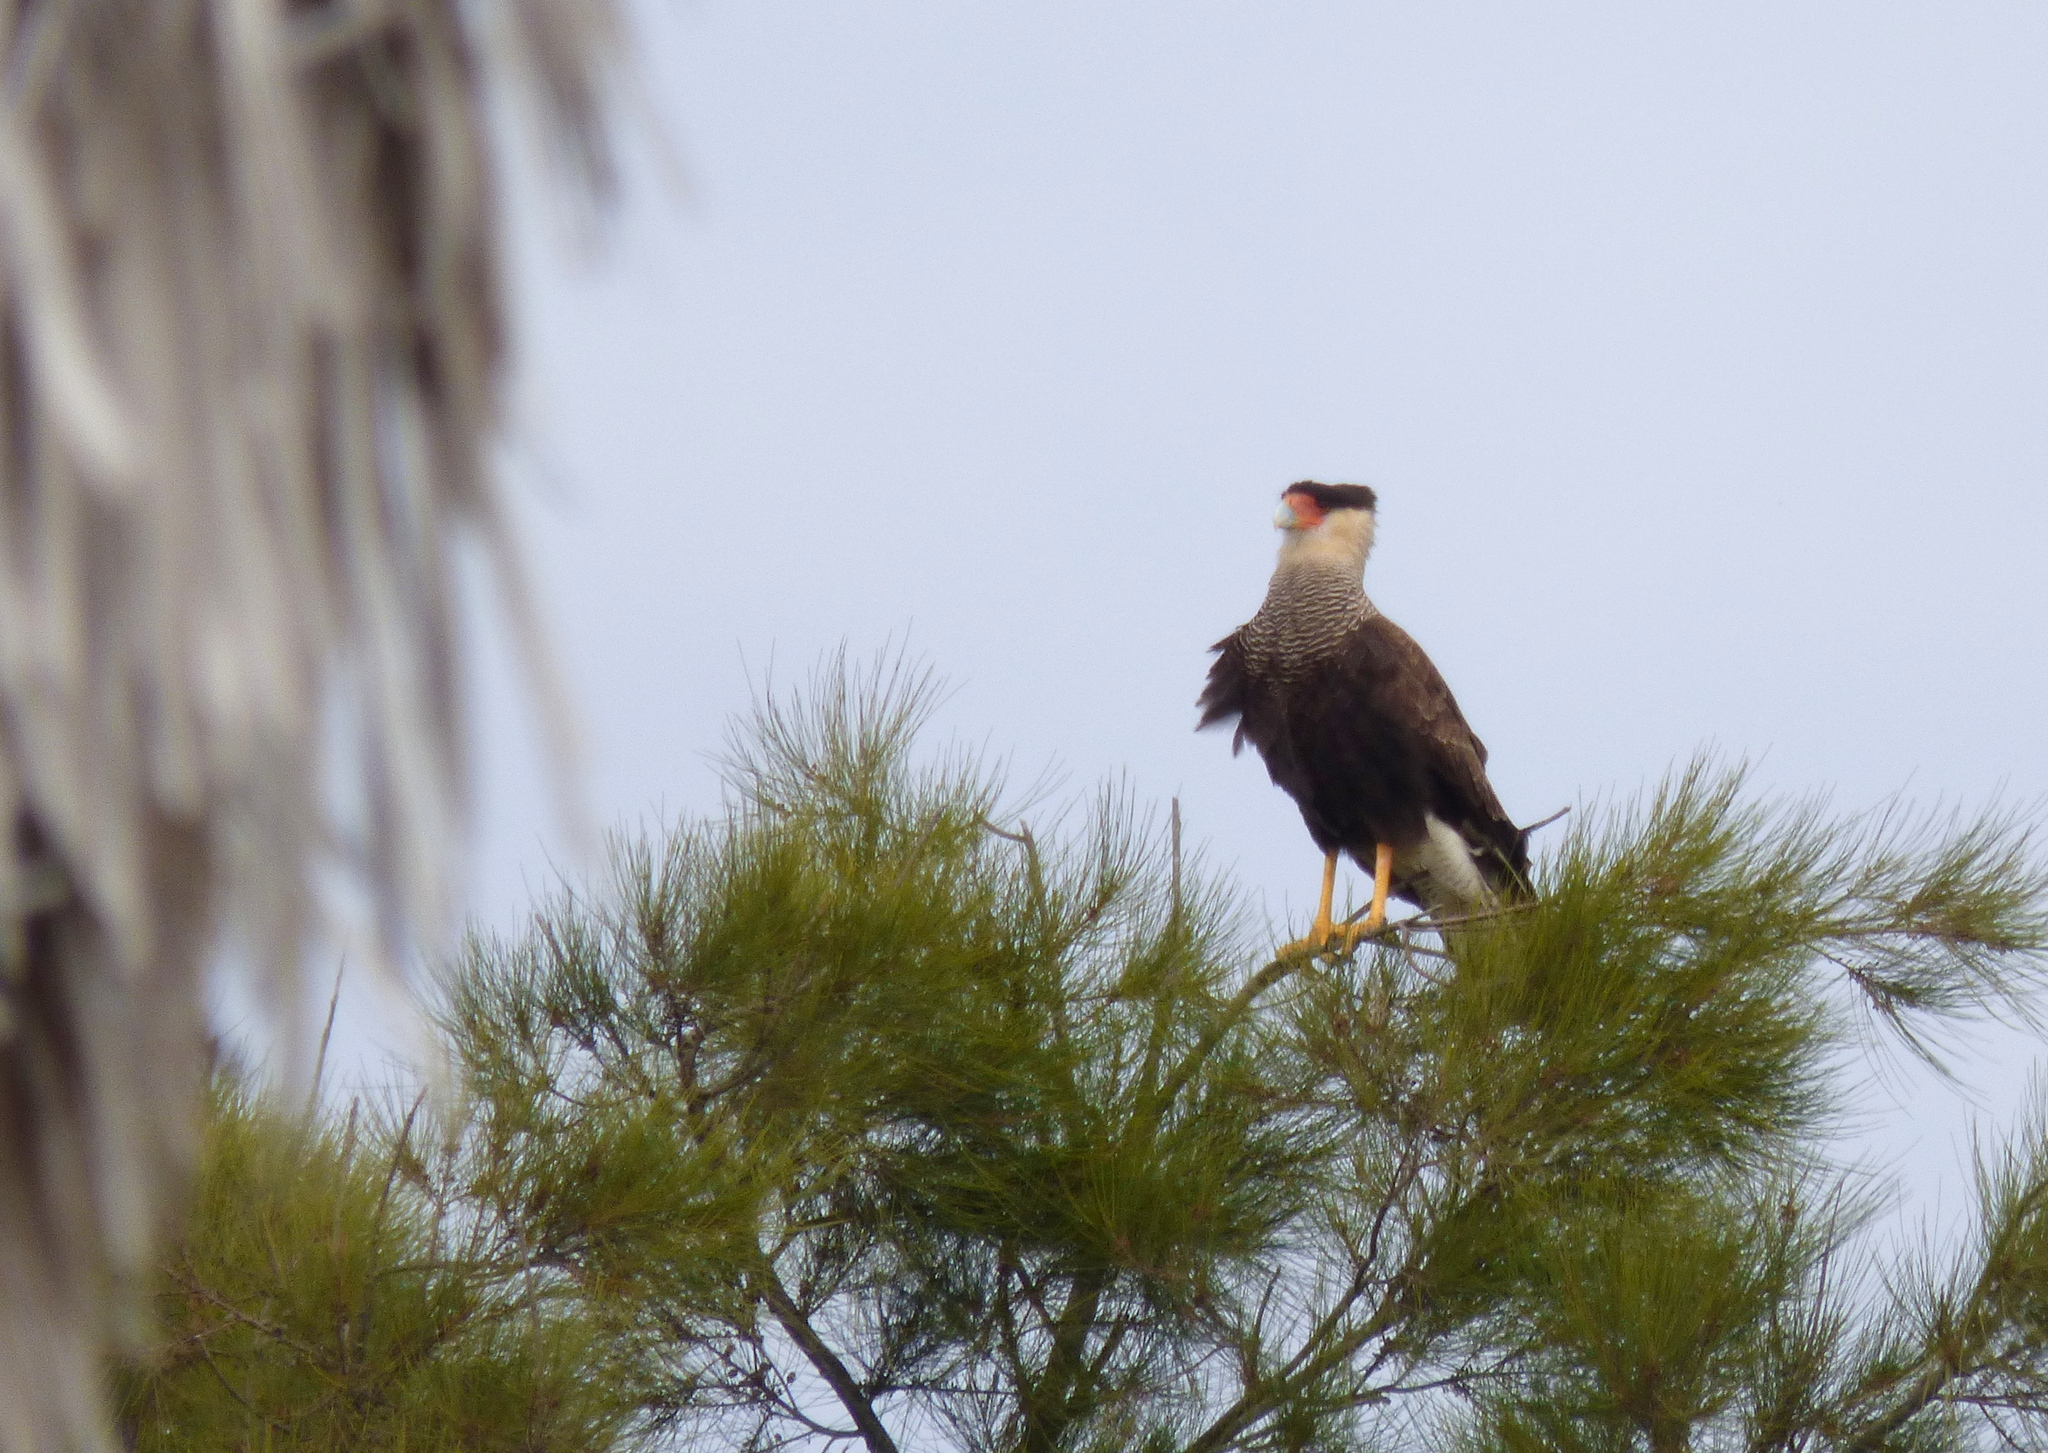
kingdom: Animalia
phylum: Chordata
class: Aves
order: Falconiformes
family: Falconidae
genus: Caracara
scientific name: Caracara plancus
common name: Southern caracara
